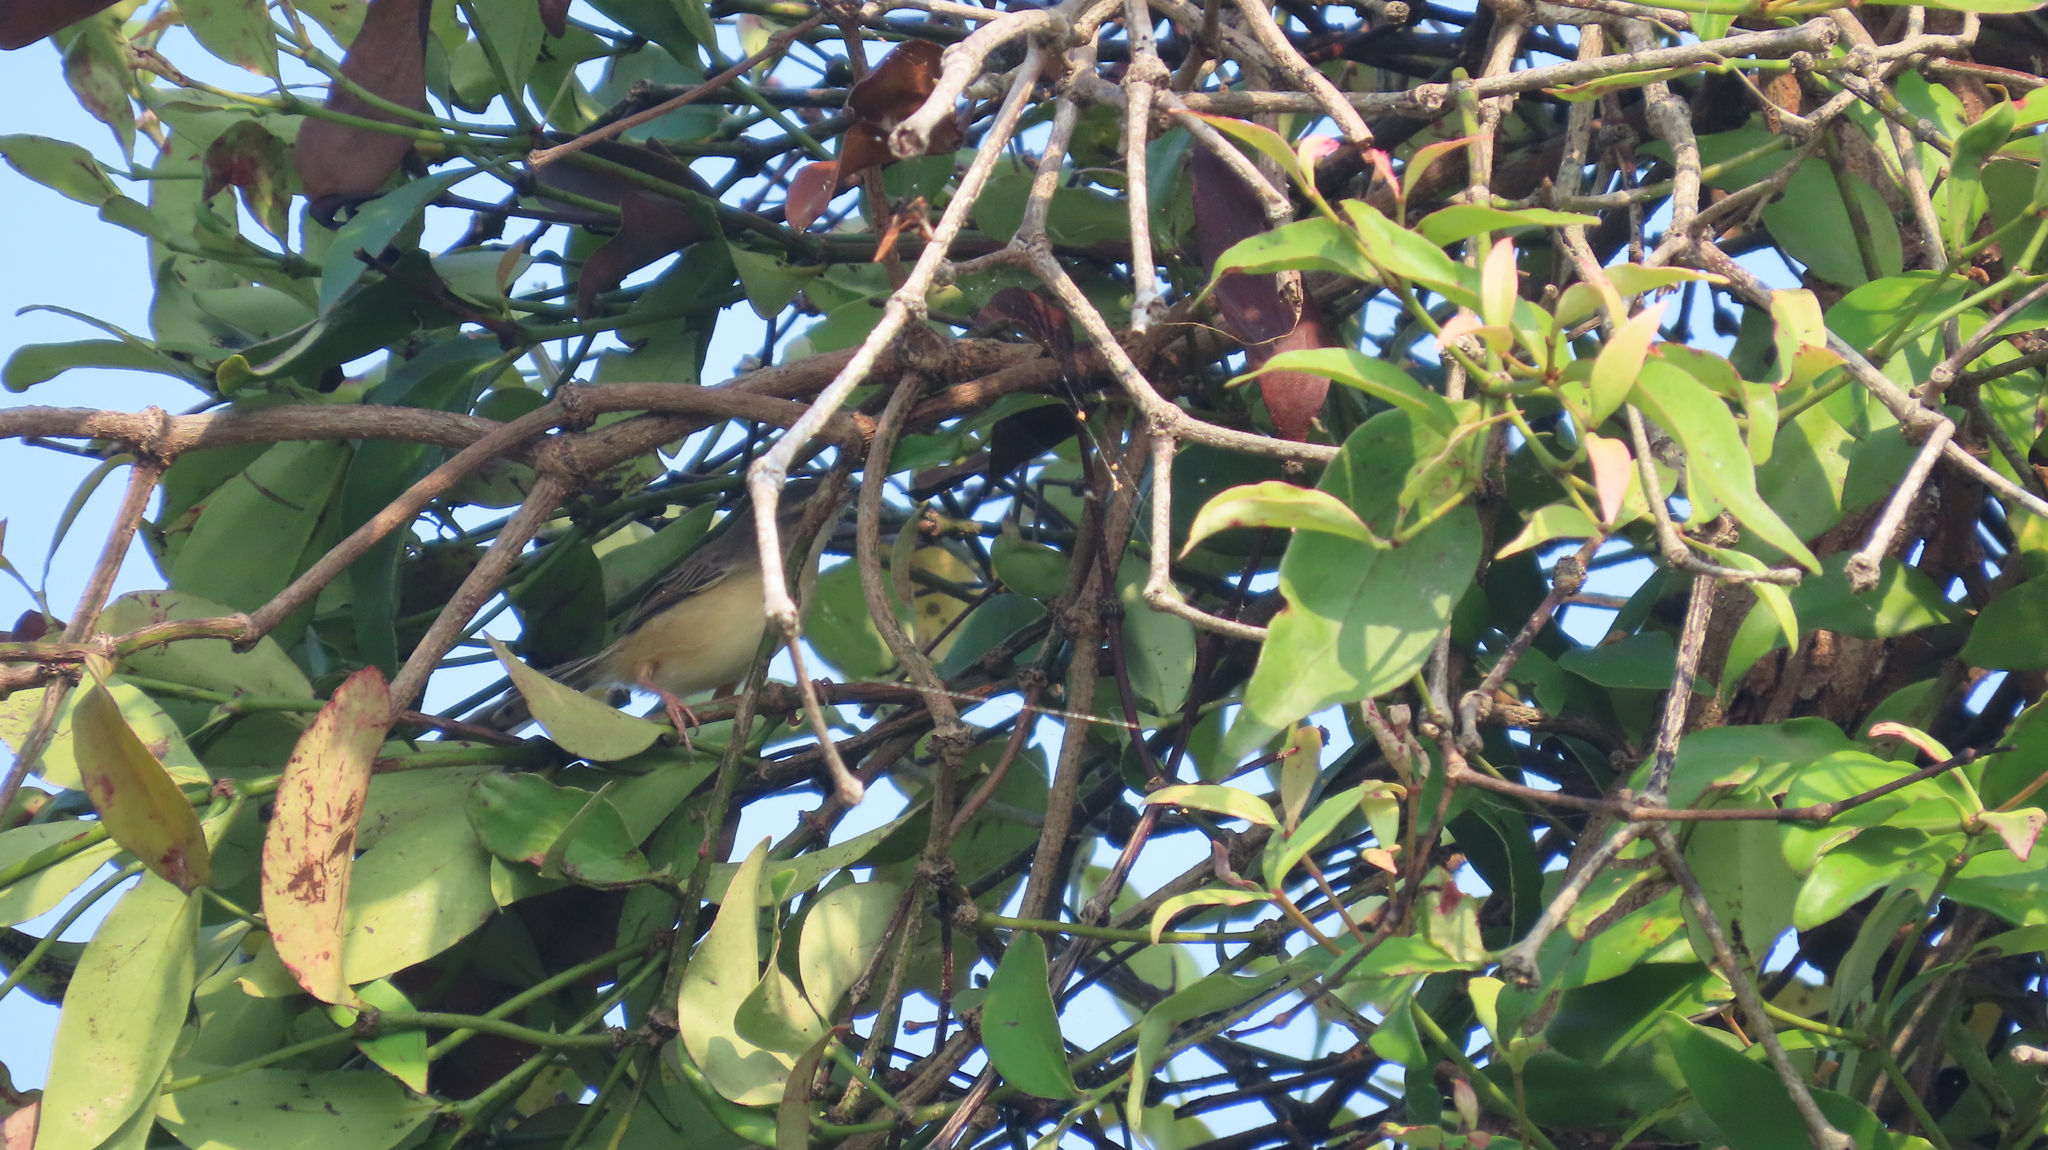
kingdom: Animalia
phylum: Chordata
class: Aves
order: Passeriformes
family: Cisticolidae
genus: Prinia
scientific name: Prinia inornata
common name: Plain prinia
